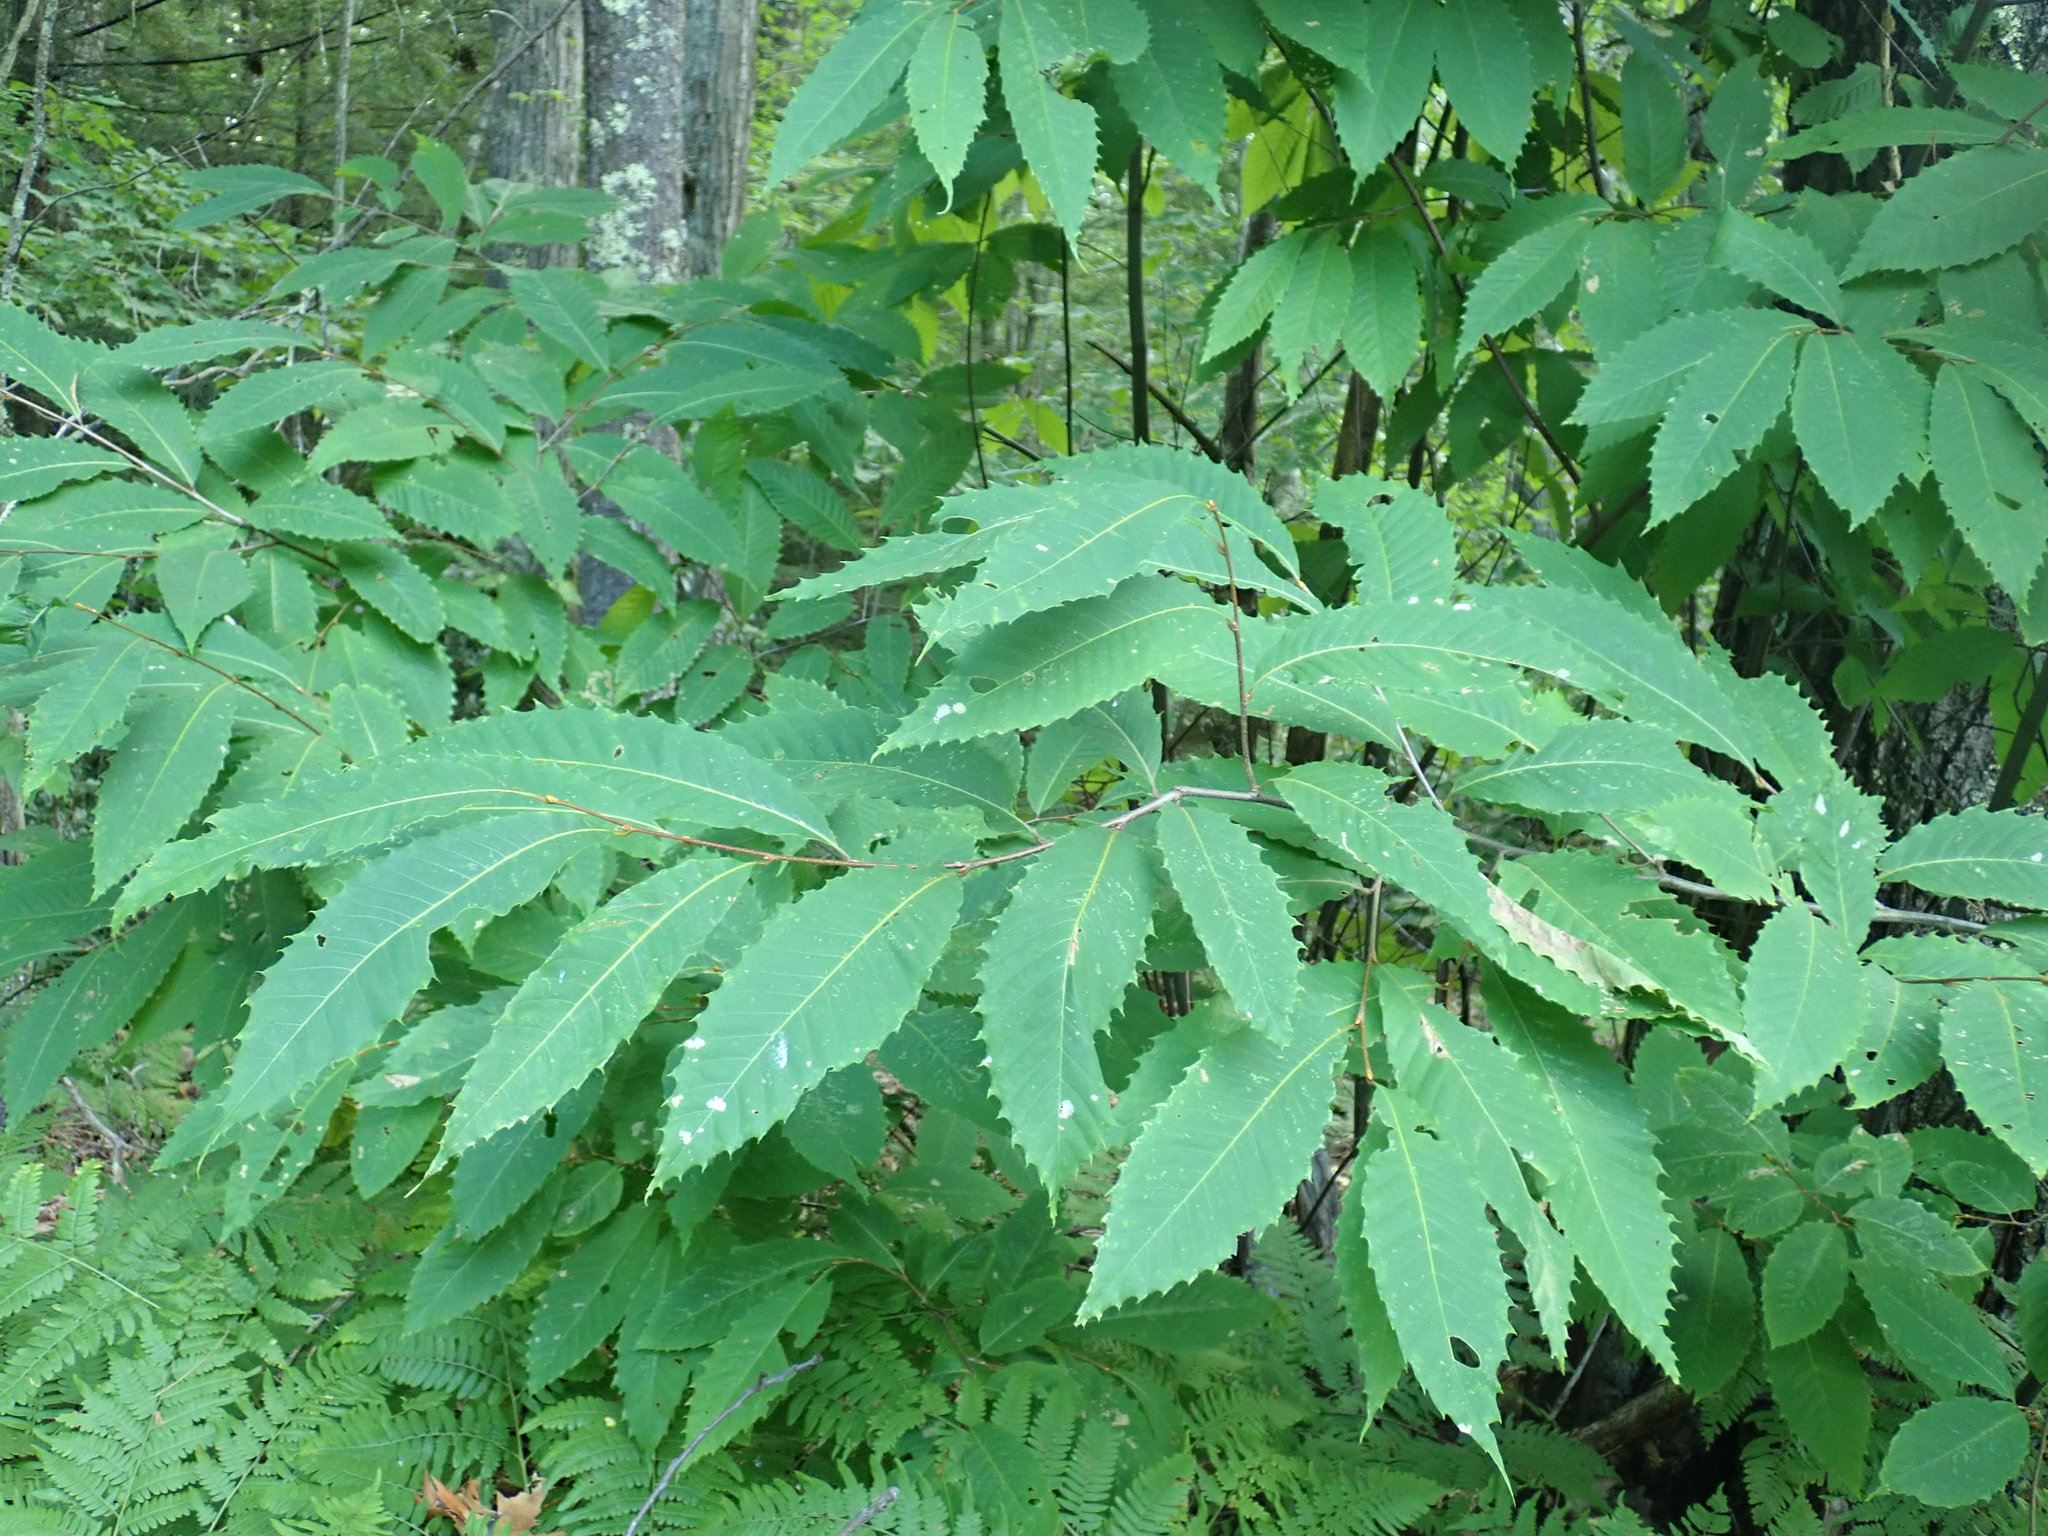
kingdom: Plantae
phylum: Tracheophyta
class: Magnoliopsida
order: Fagales
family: Fagaceae
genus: Castanea
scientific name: Castanea dentata
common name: American chestnut
